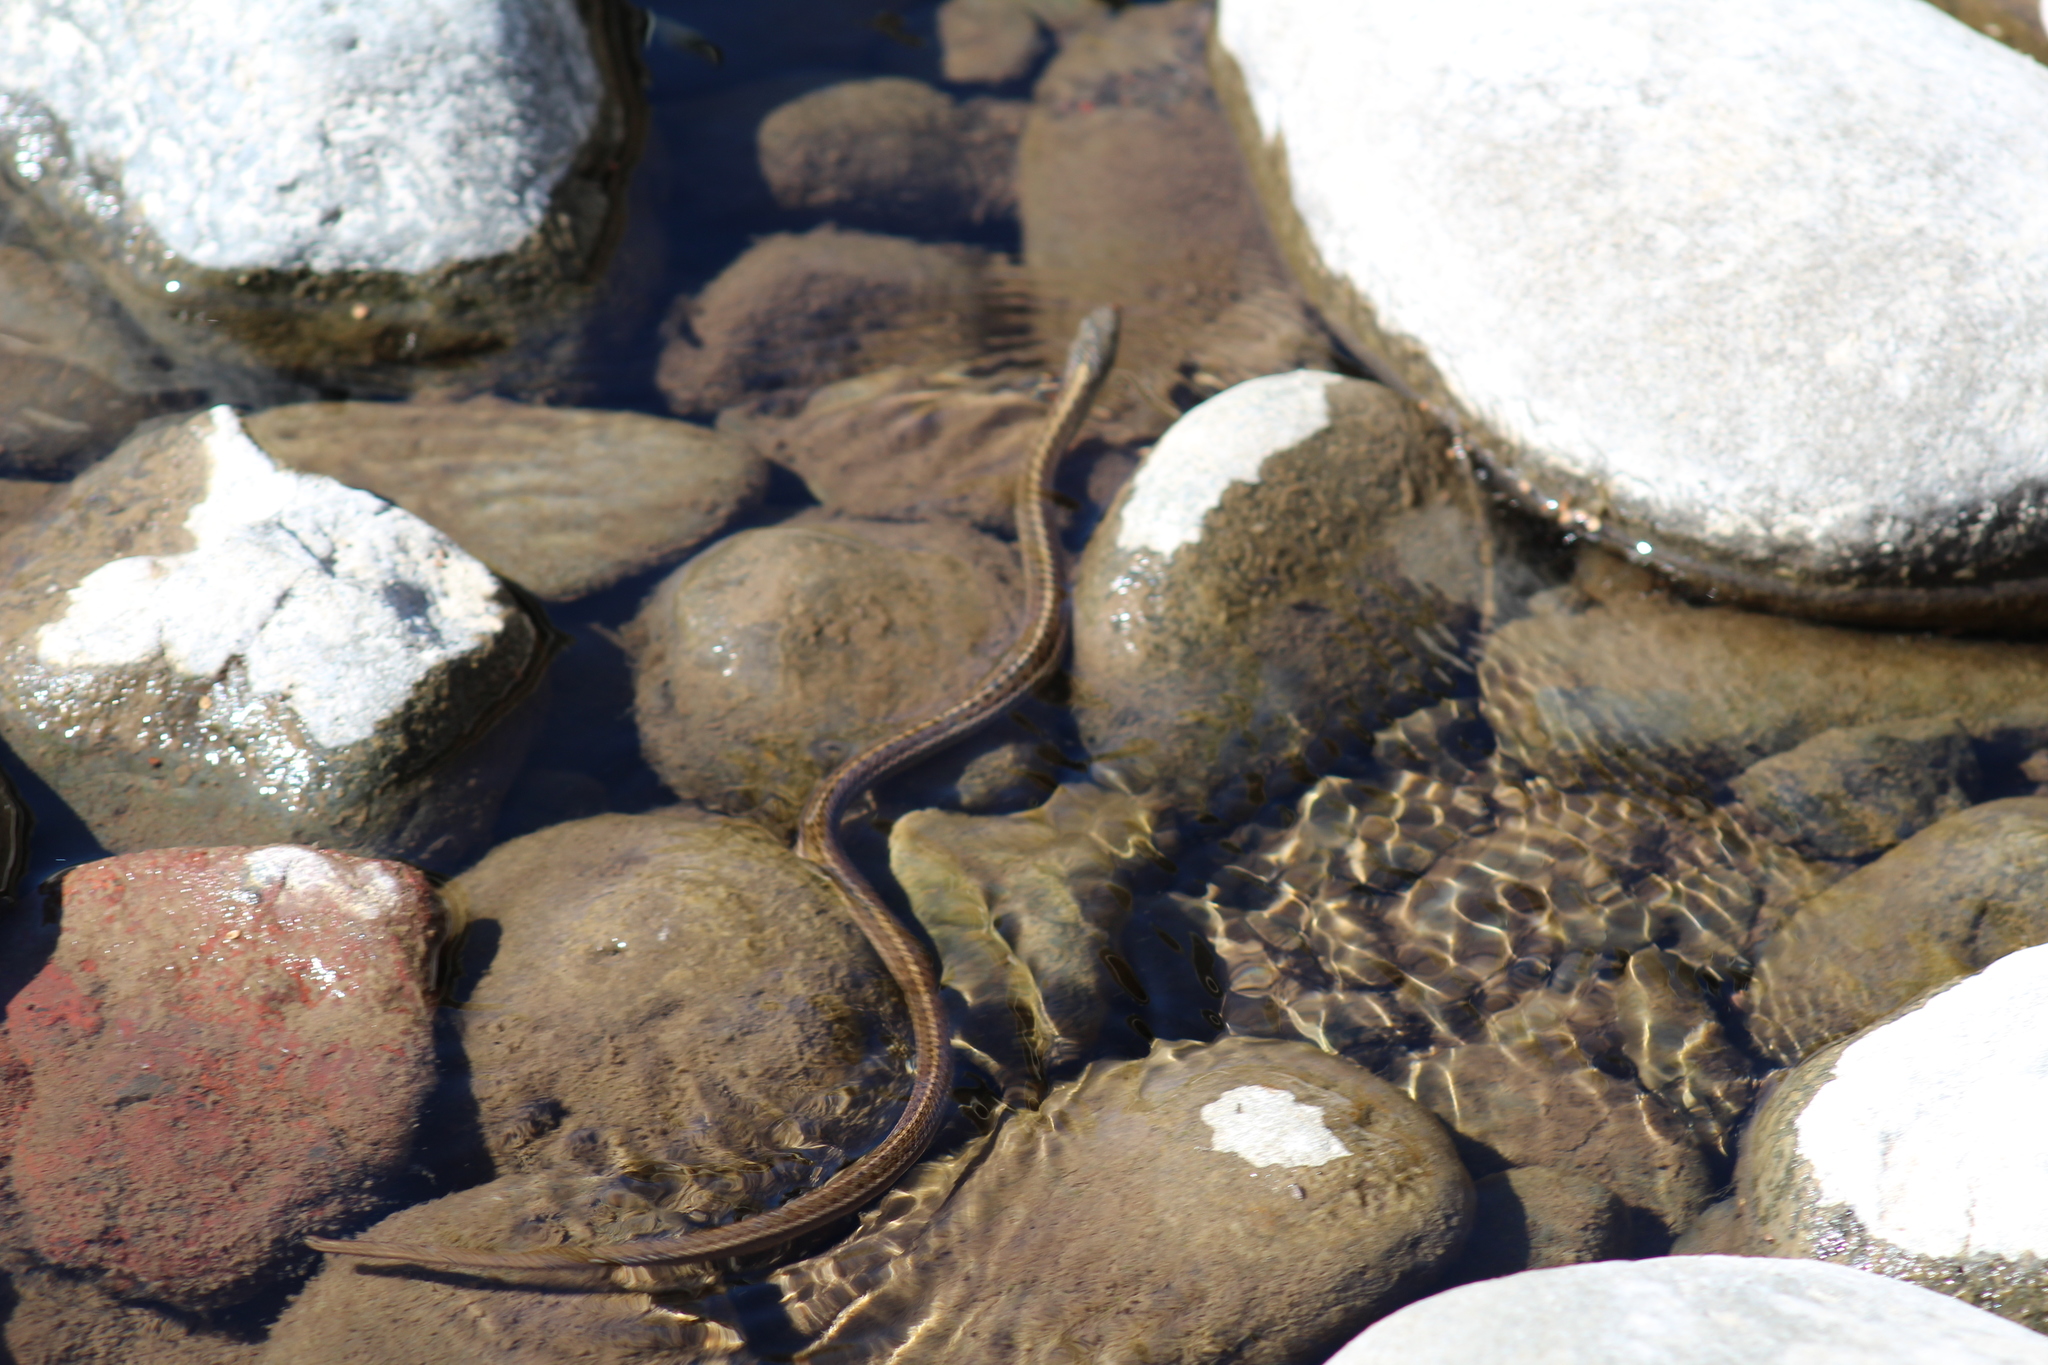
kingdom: Animalia
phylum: Chordata
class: Squamata
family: Colubridae
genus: Thamnophis
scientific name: Thamnophis elegans
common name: Western terrestrial garter snake
